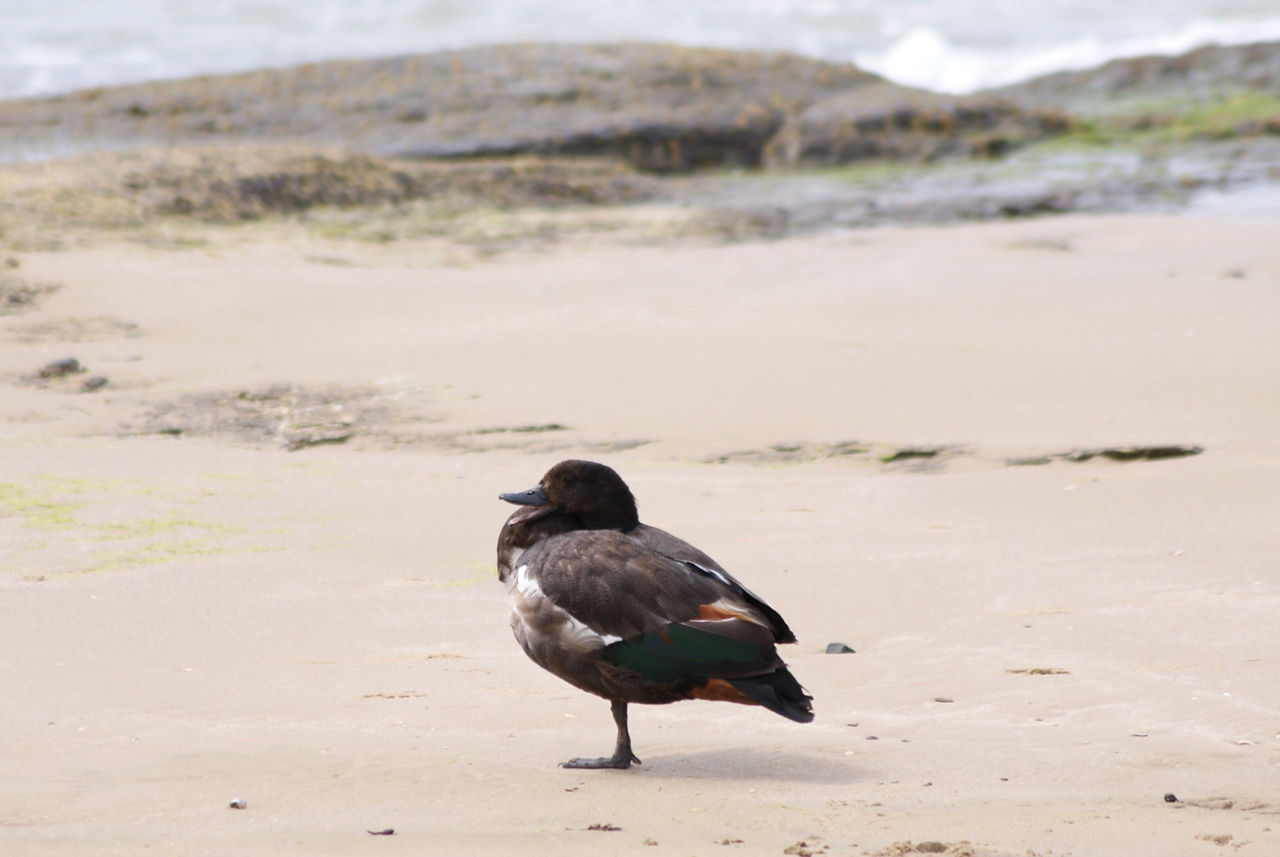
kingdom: Animalia
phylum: Chordata
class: Aves
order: Anseriformes
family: Anatidae
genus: Tadorna
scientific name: Tadorna variegata
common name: Paradise shelduck
